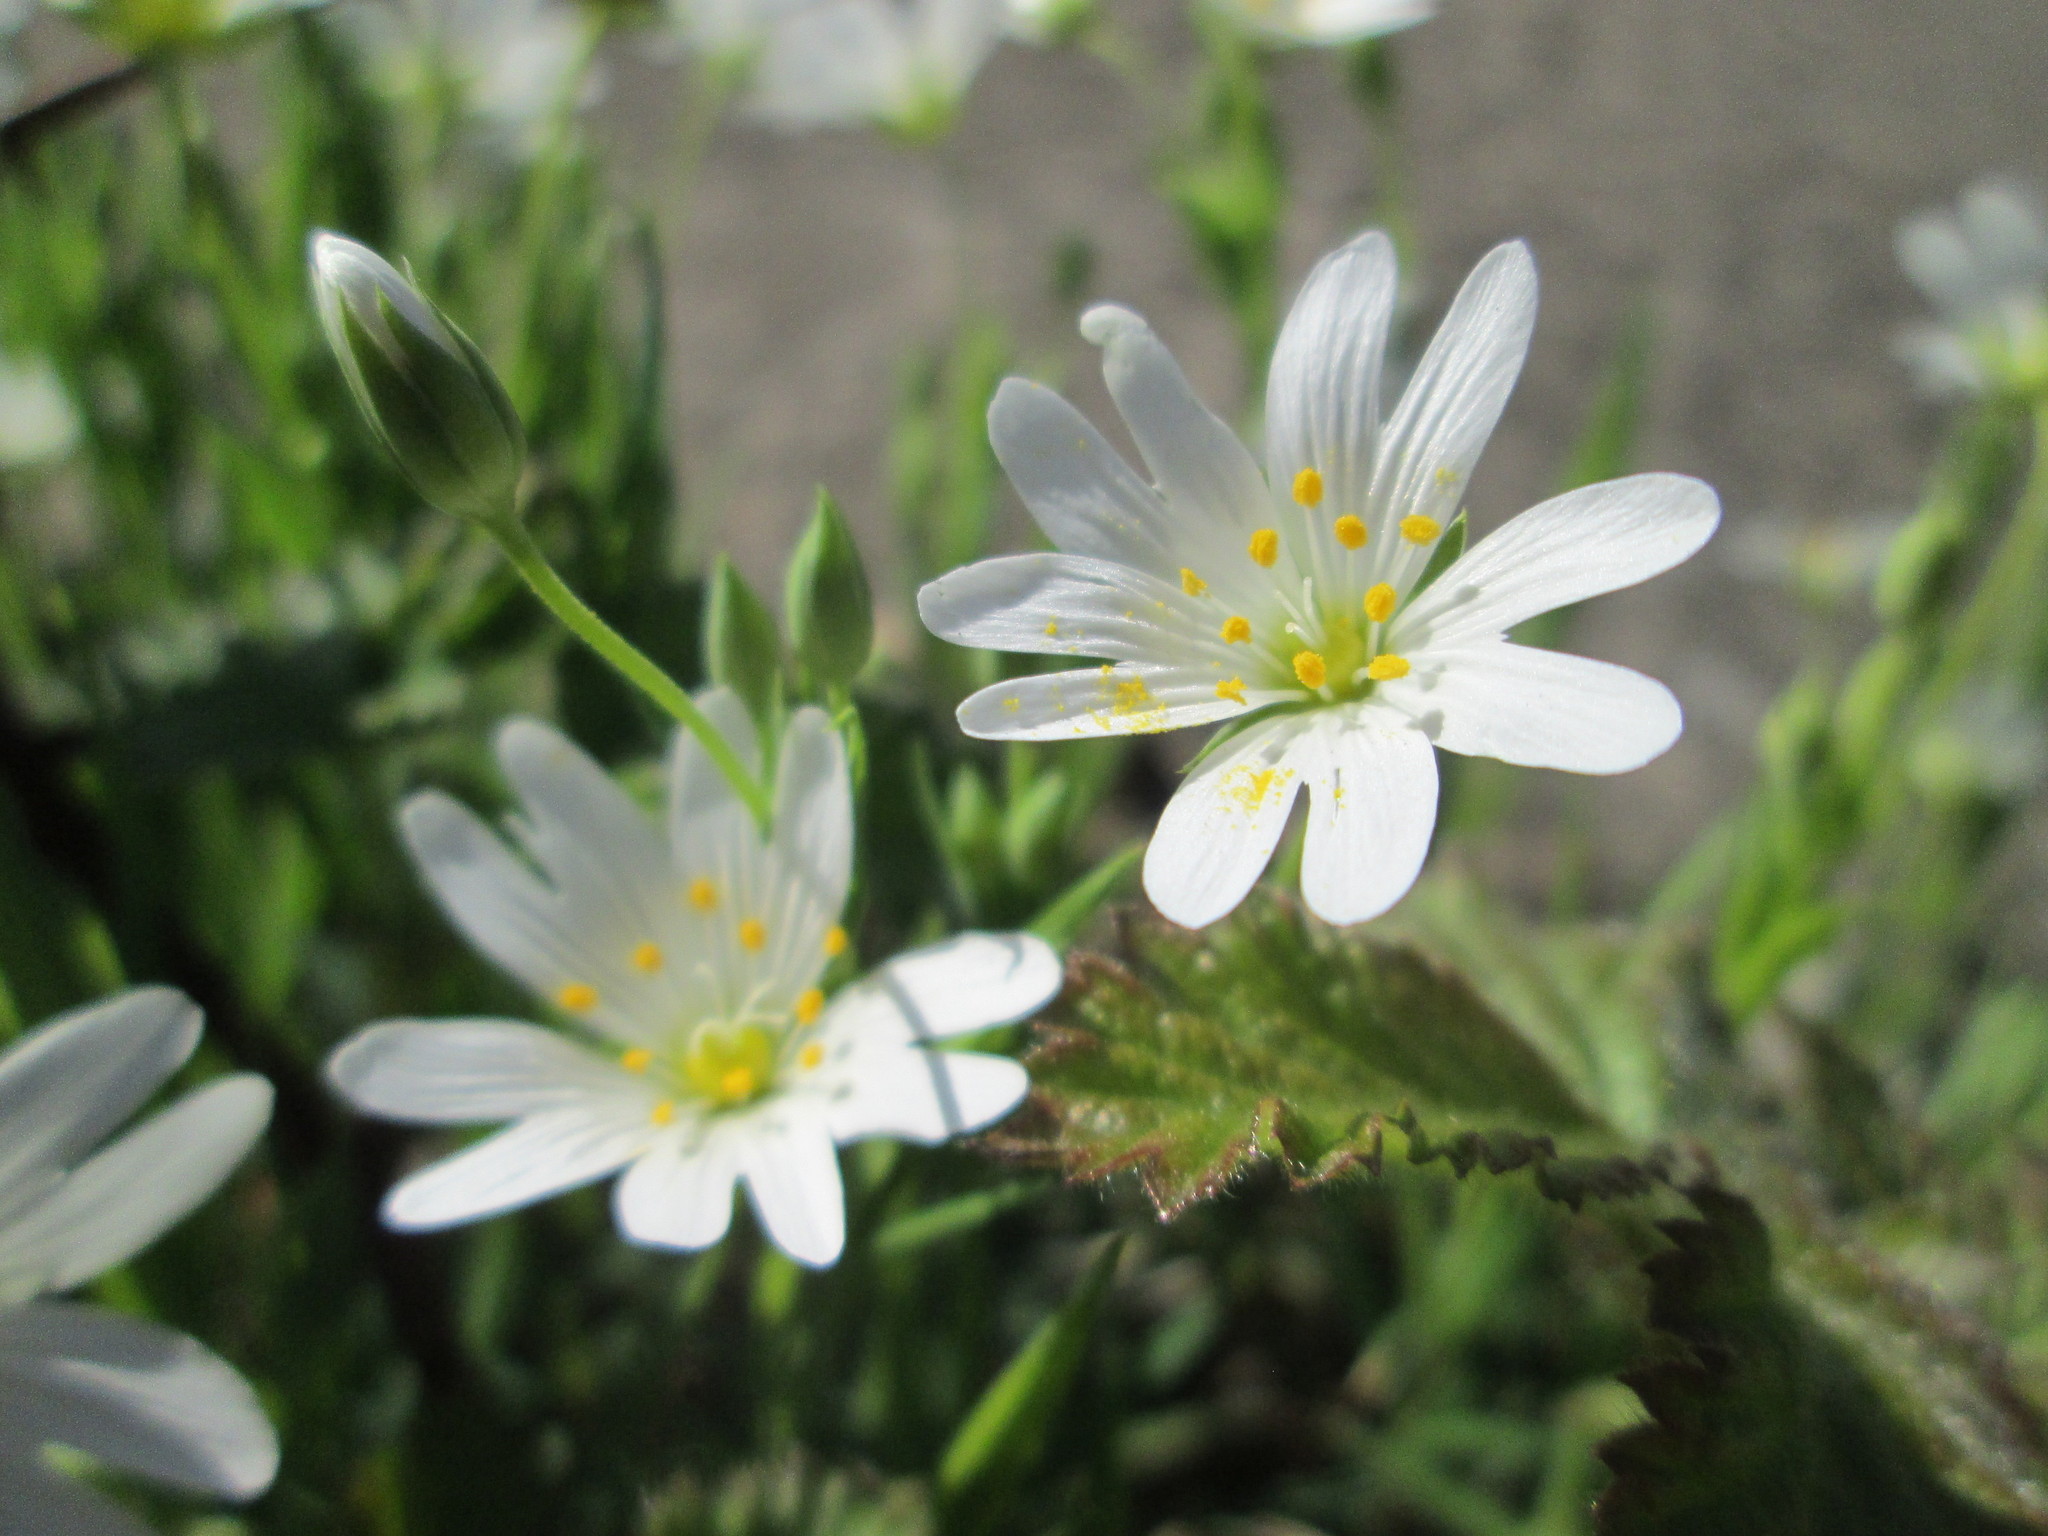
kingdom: Plantae
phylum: Tracheophyta
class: Magnoliopsida
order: Caryophyllales
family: Caryophyllaceae
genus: Rabelera
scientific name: Rabelera holostea
